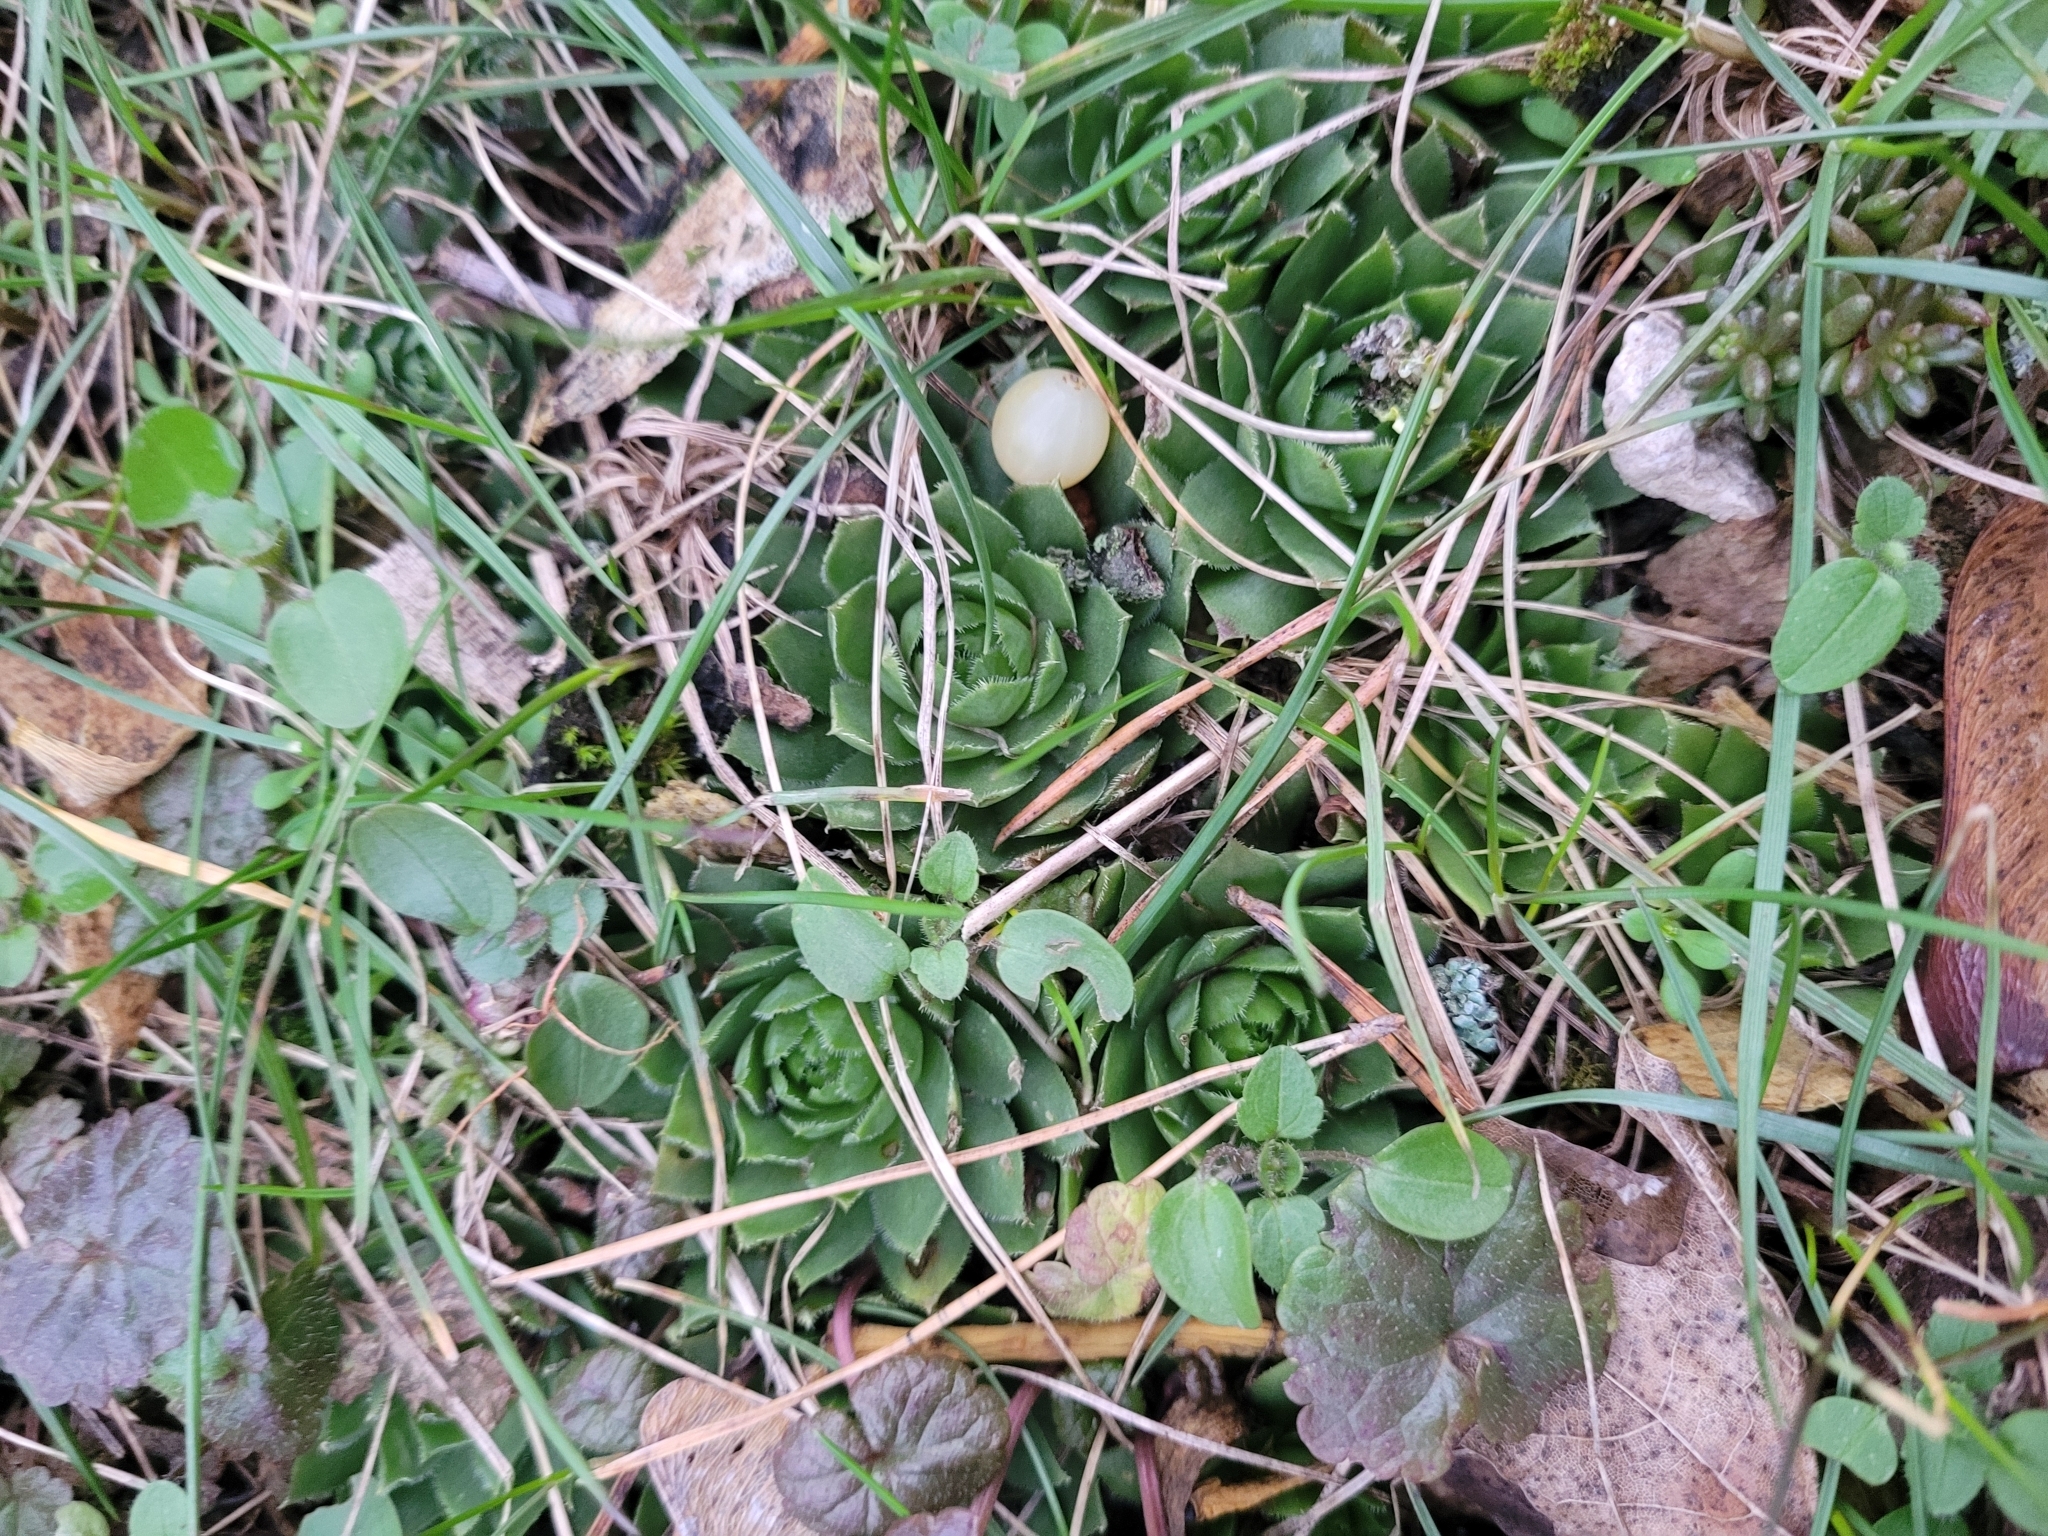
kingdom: Plantae
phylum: Tracheophyta
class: Magnoliopsida
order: Saxifragales
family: Crassulaceae
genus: Sempervivum
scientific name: Sempervivum globiferum
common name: Rolling hen-and-chicks
